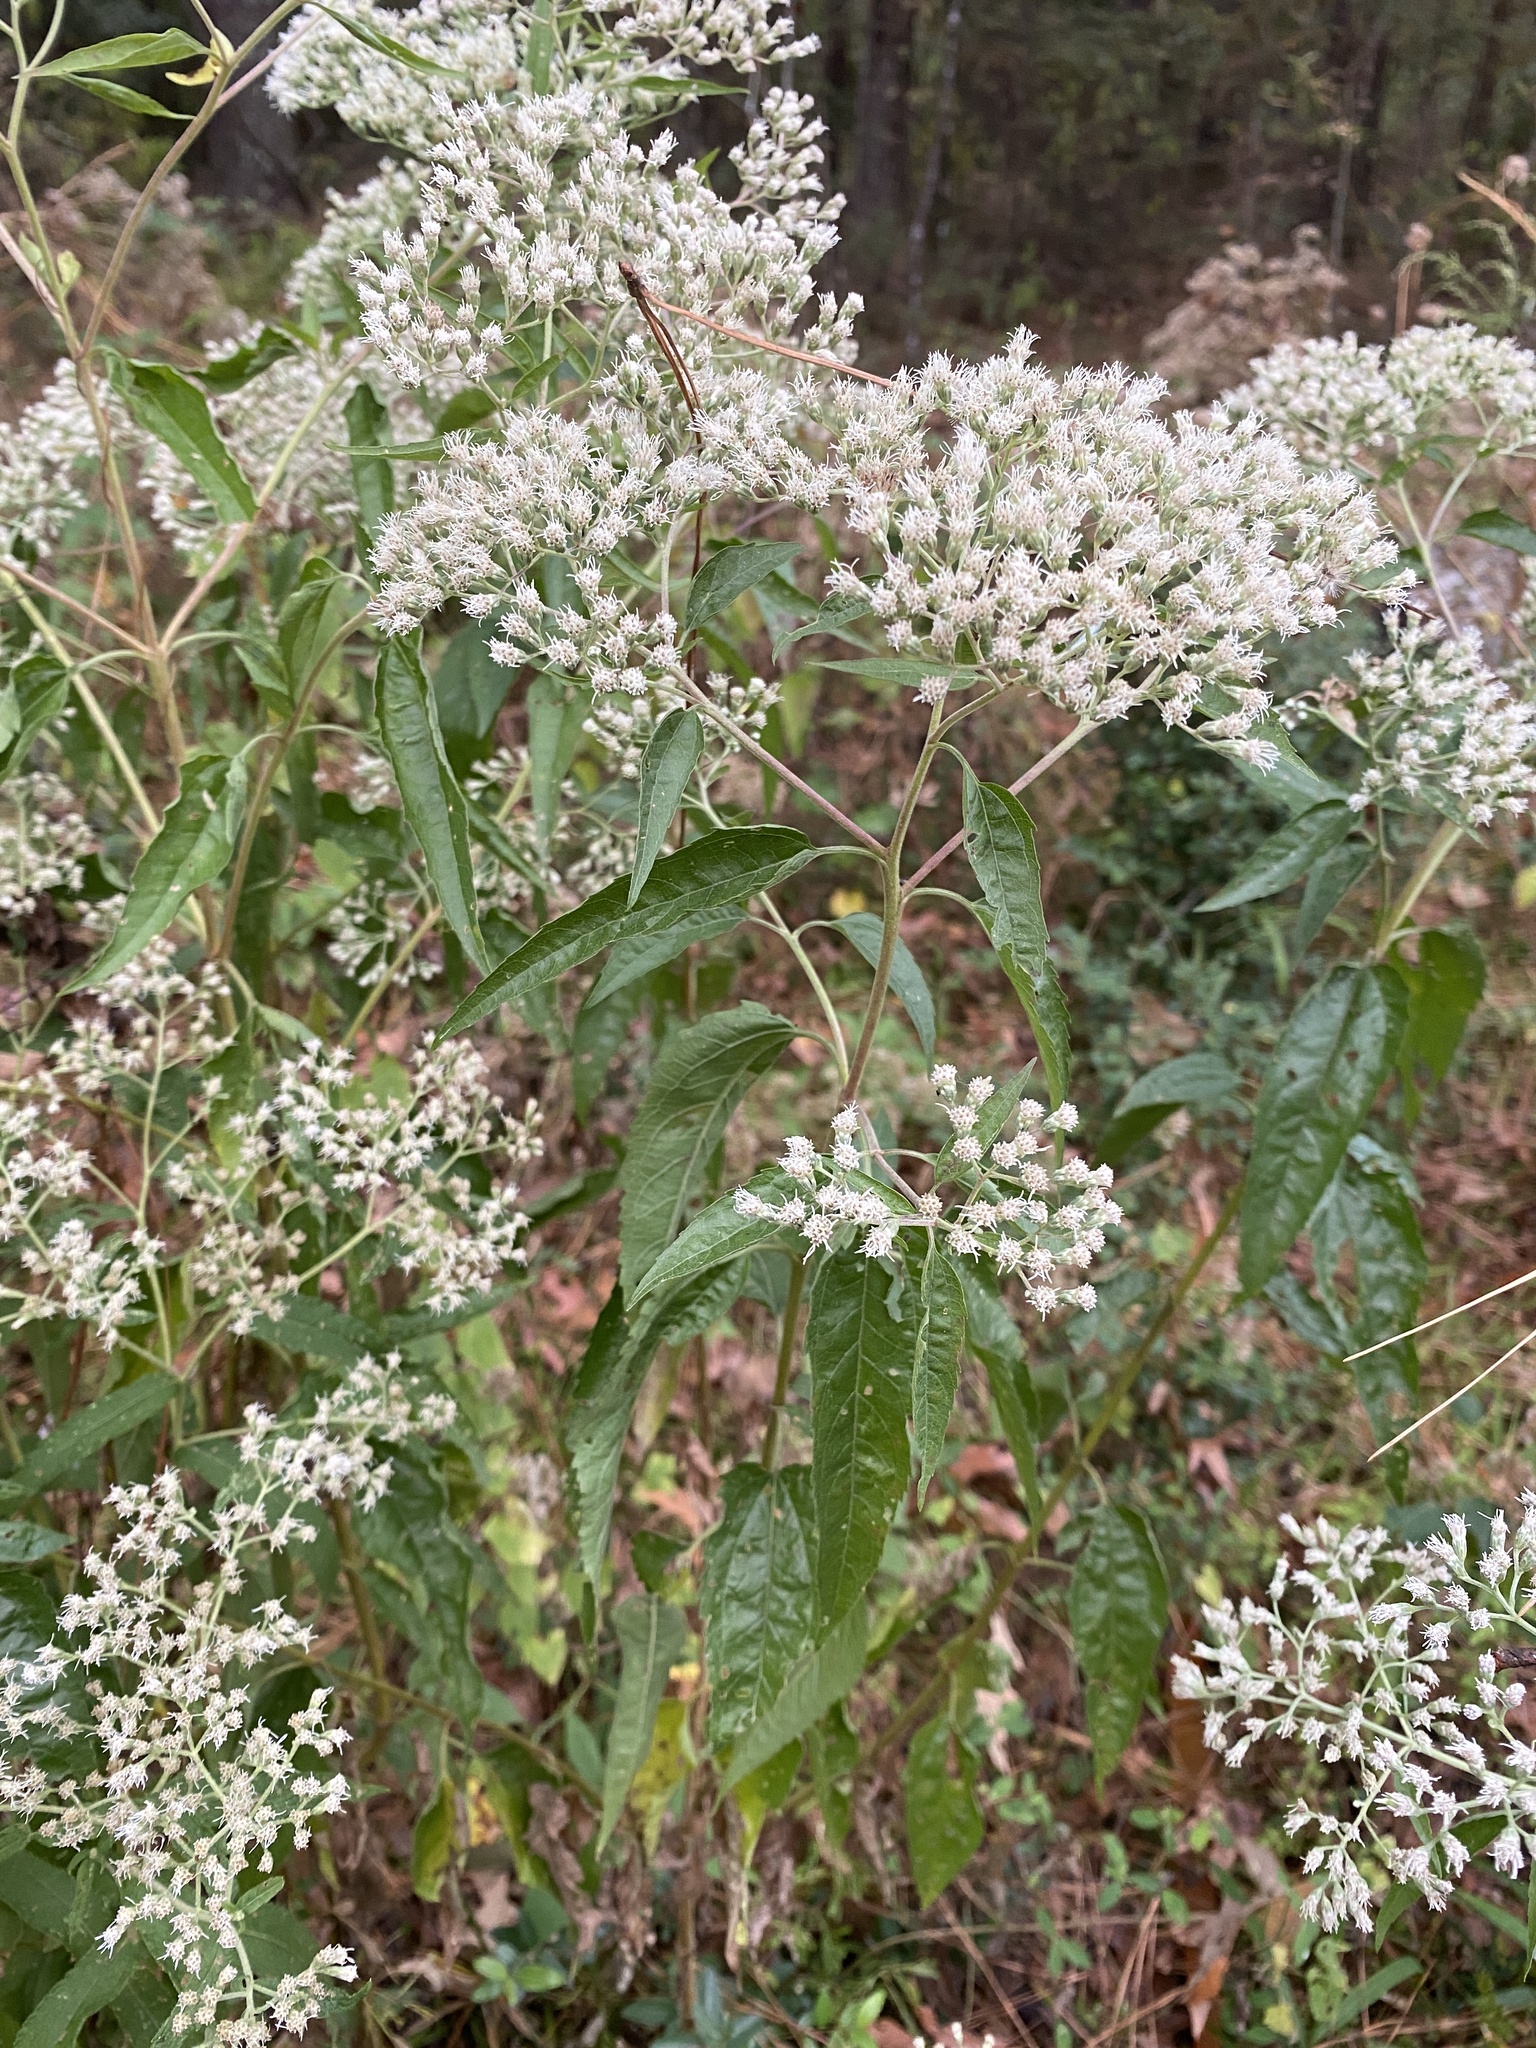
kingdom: Plantae
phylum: Tracheophyta
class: Magnoliopsida
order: Asterales
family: Asteraceae
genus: Eupatorium
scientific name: Eupatorium serotinum
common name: Late boneset
